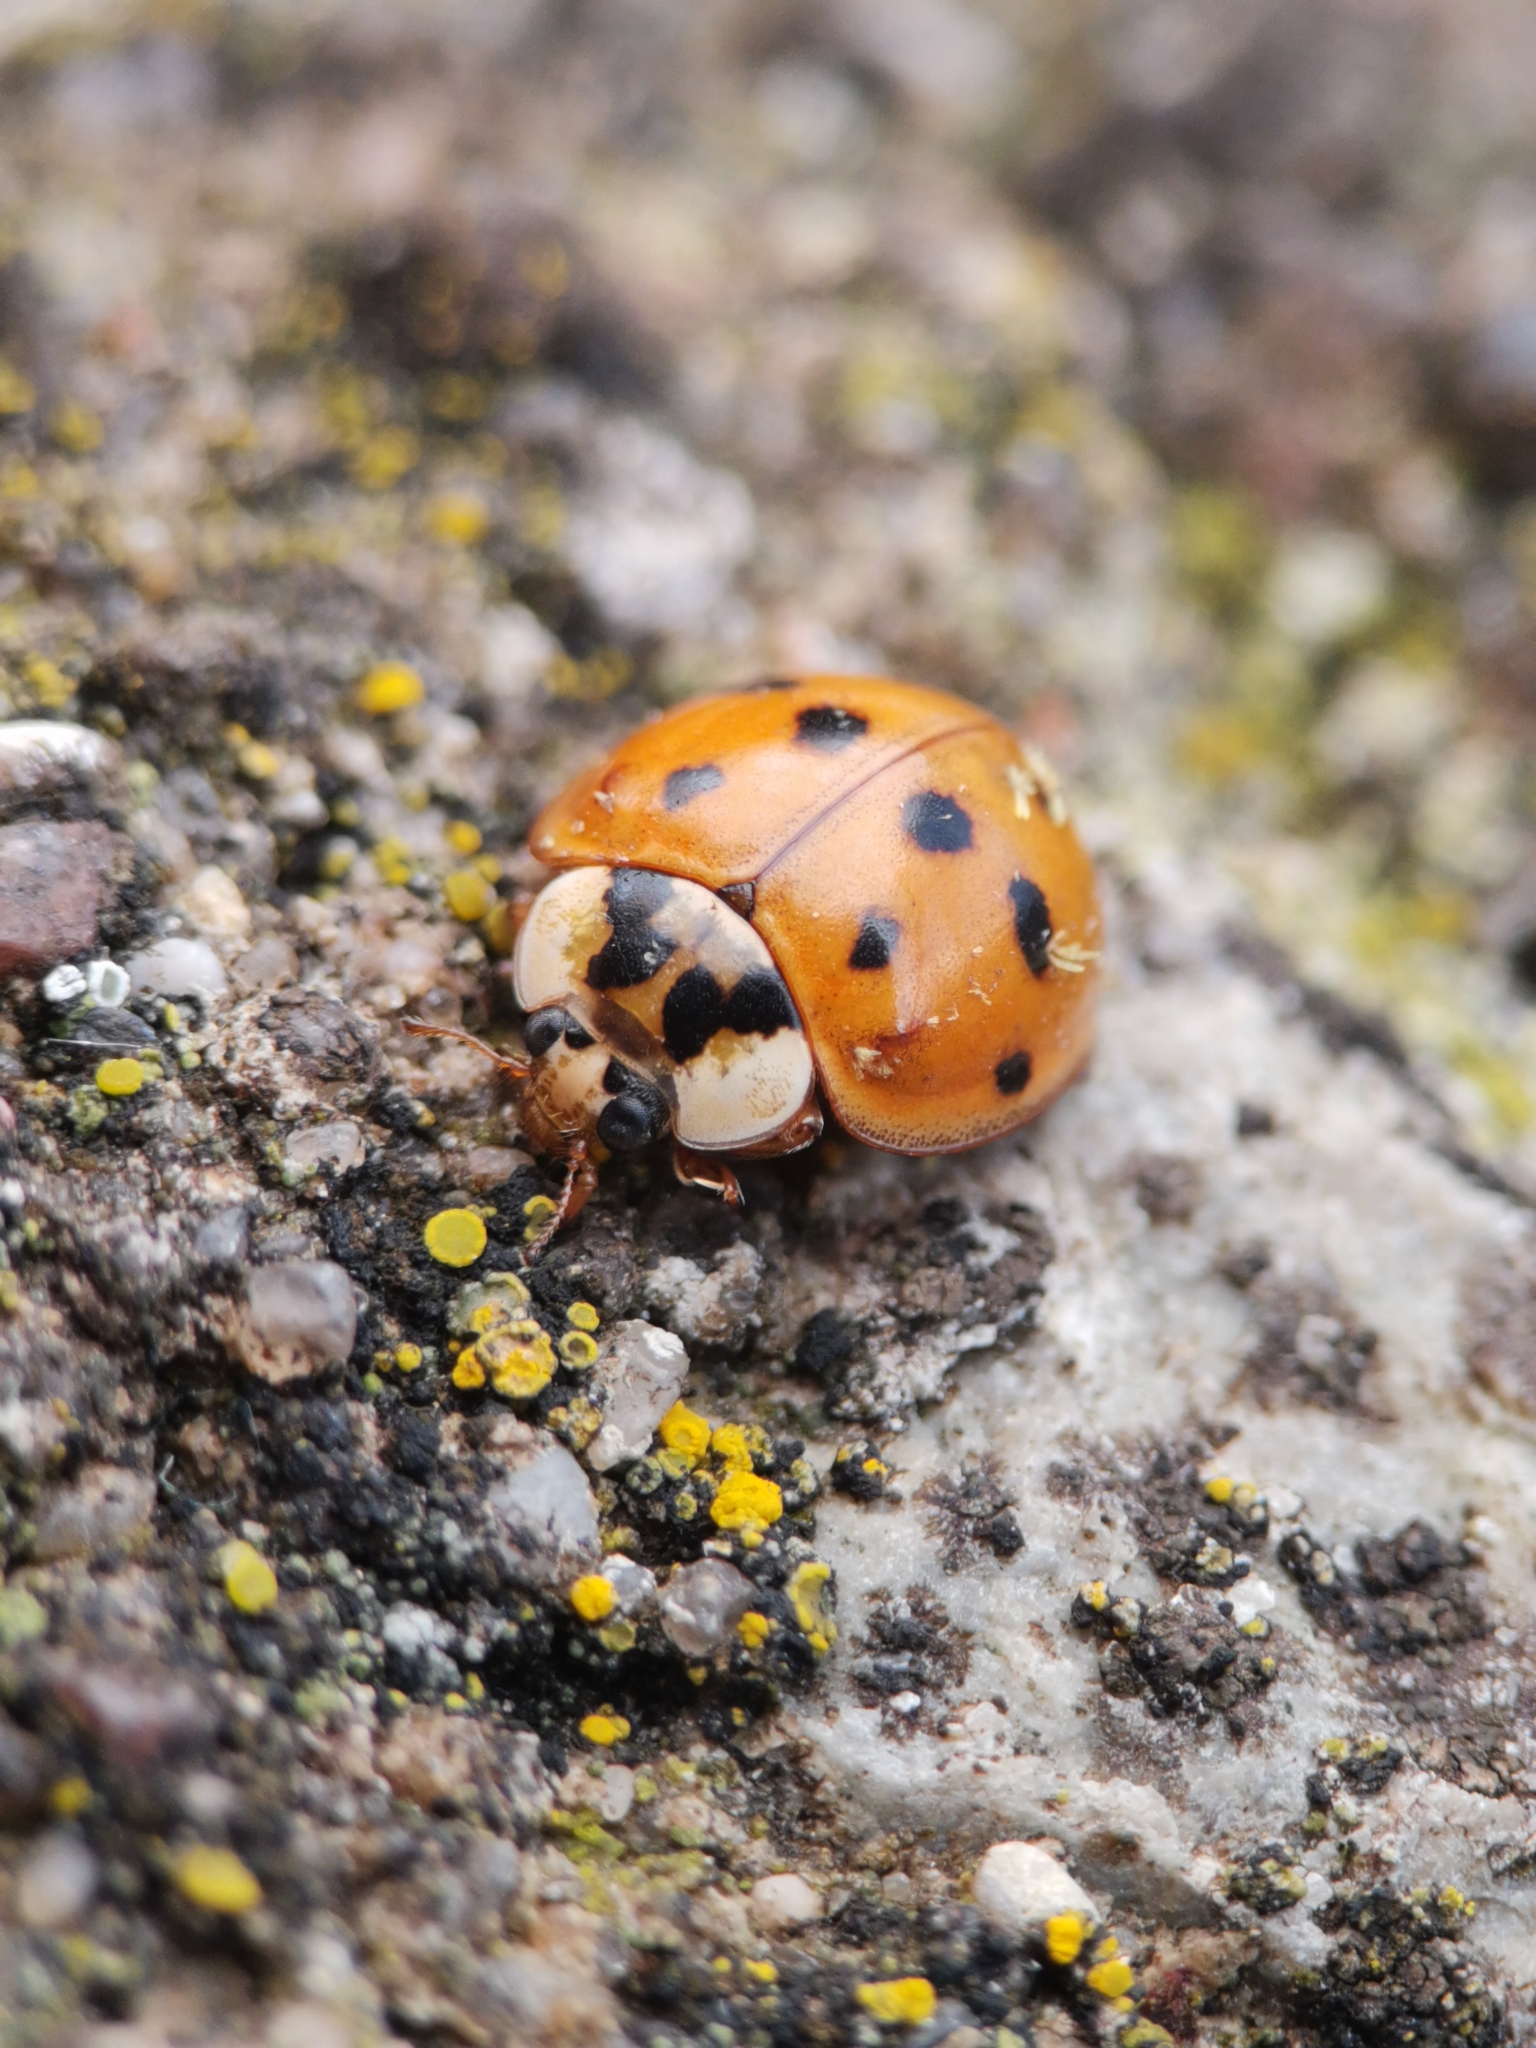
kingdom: Animalia
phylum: Arthropoda
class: Insecta
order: Coleoptera
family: Coccinellidae
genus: Harmonia
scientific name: Harmonia axyridis
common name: Harlequin ladybird
